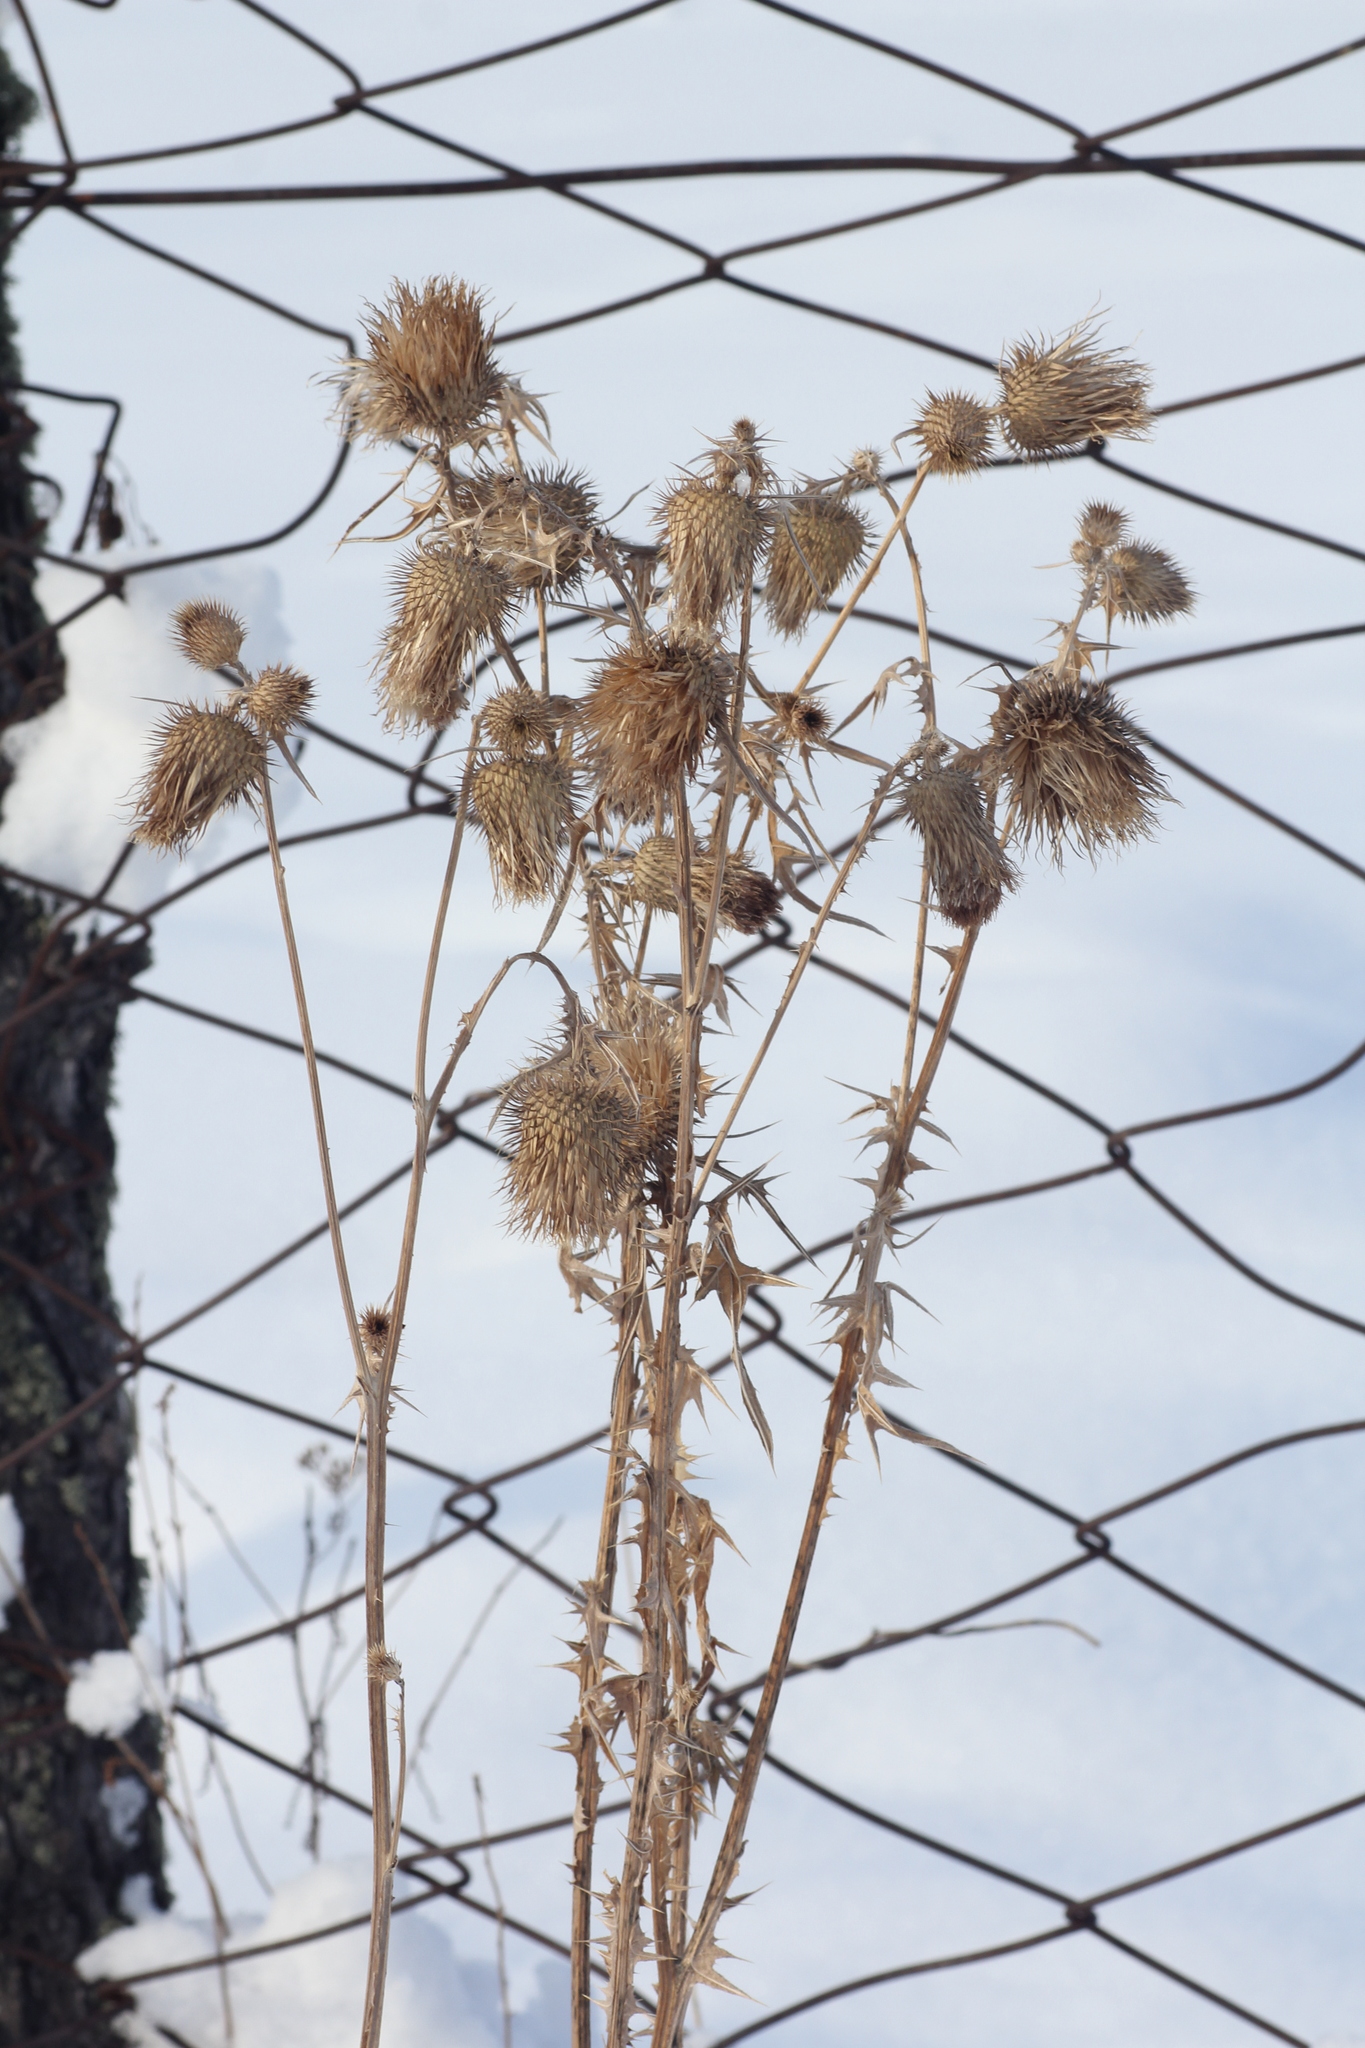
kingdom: Plantae
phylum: Tracheophyta
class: Magnoliopsida
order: Asterales
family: Asteraceae
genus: Cirsium
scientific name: Cirsium vulgare
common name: Bull thistle
